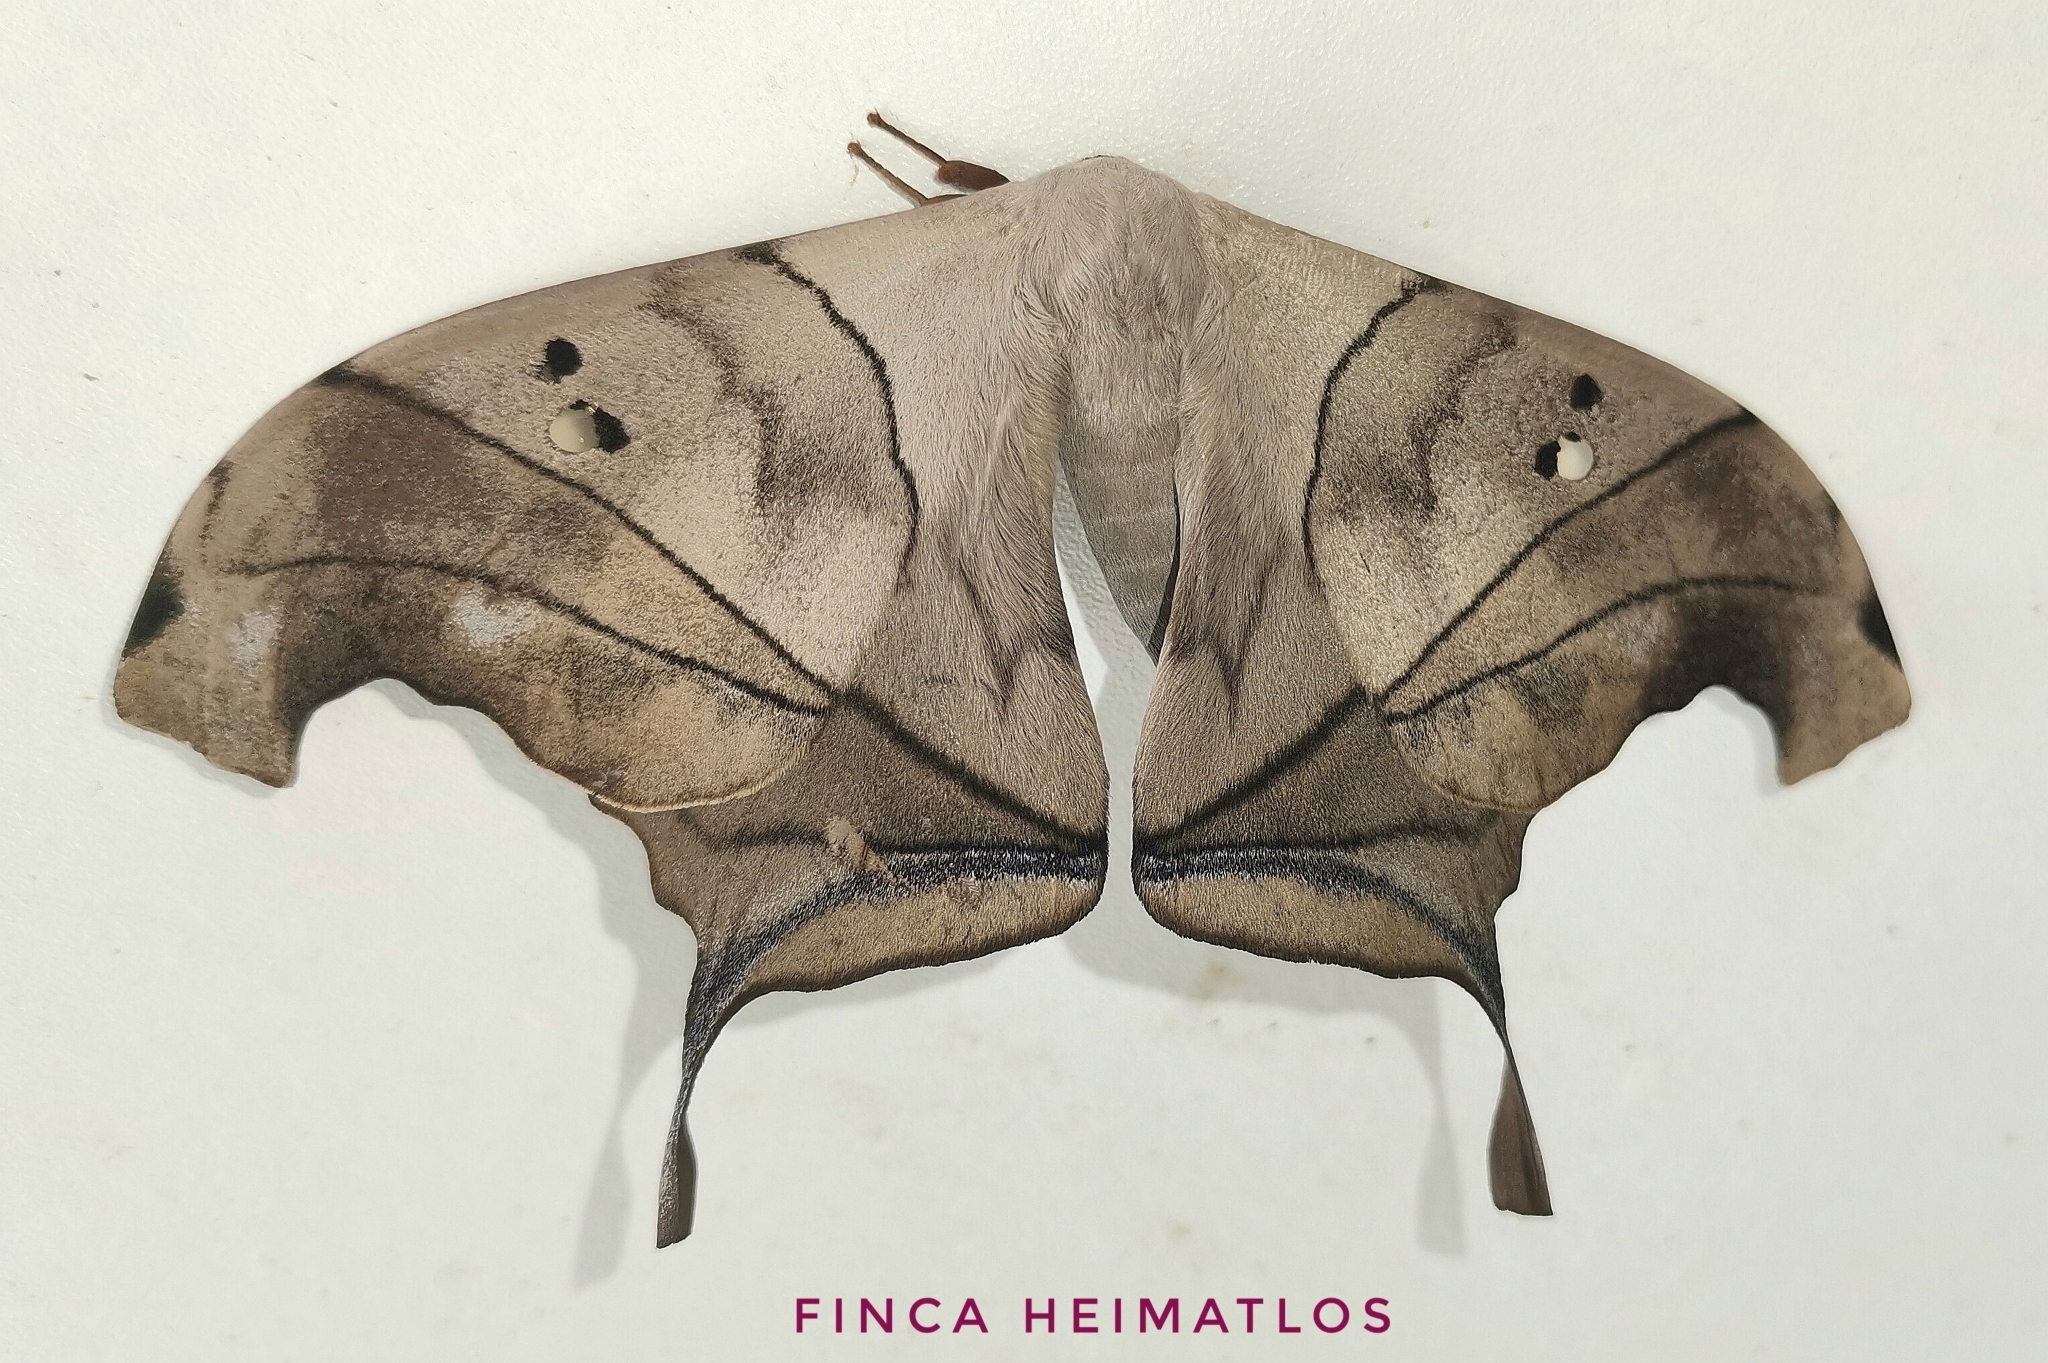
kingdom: Animalia
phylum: Arthropoda
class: Insecta
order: Lepidoptera
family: Saturniidae
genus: Dysdaemonia
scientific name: Dysdaemonia boreas
